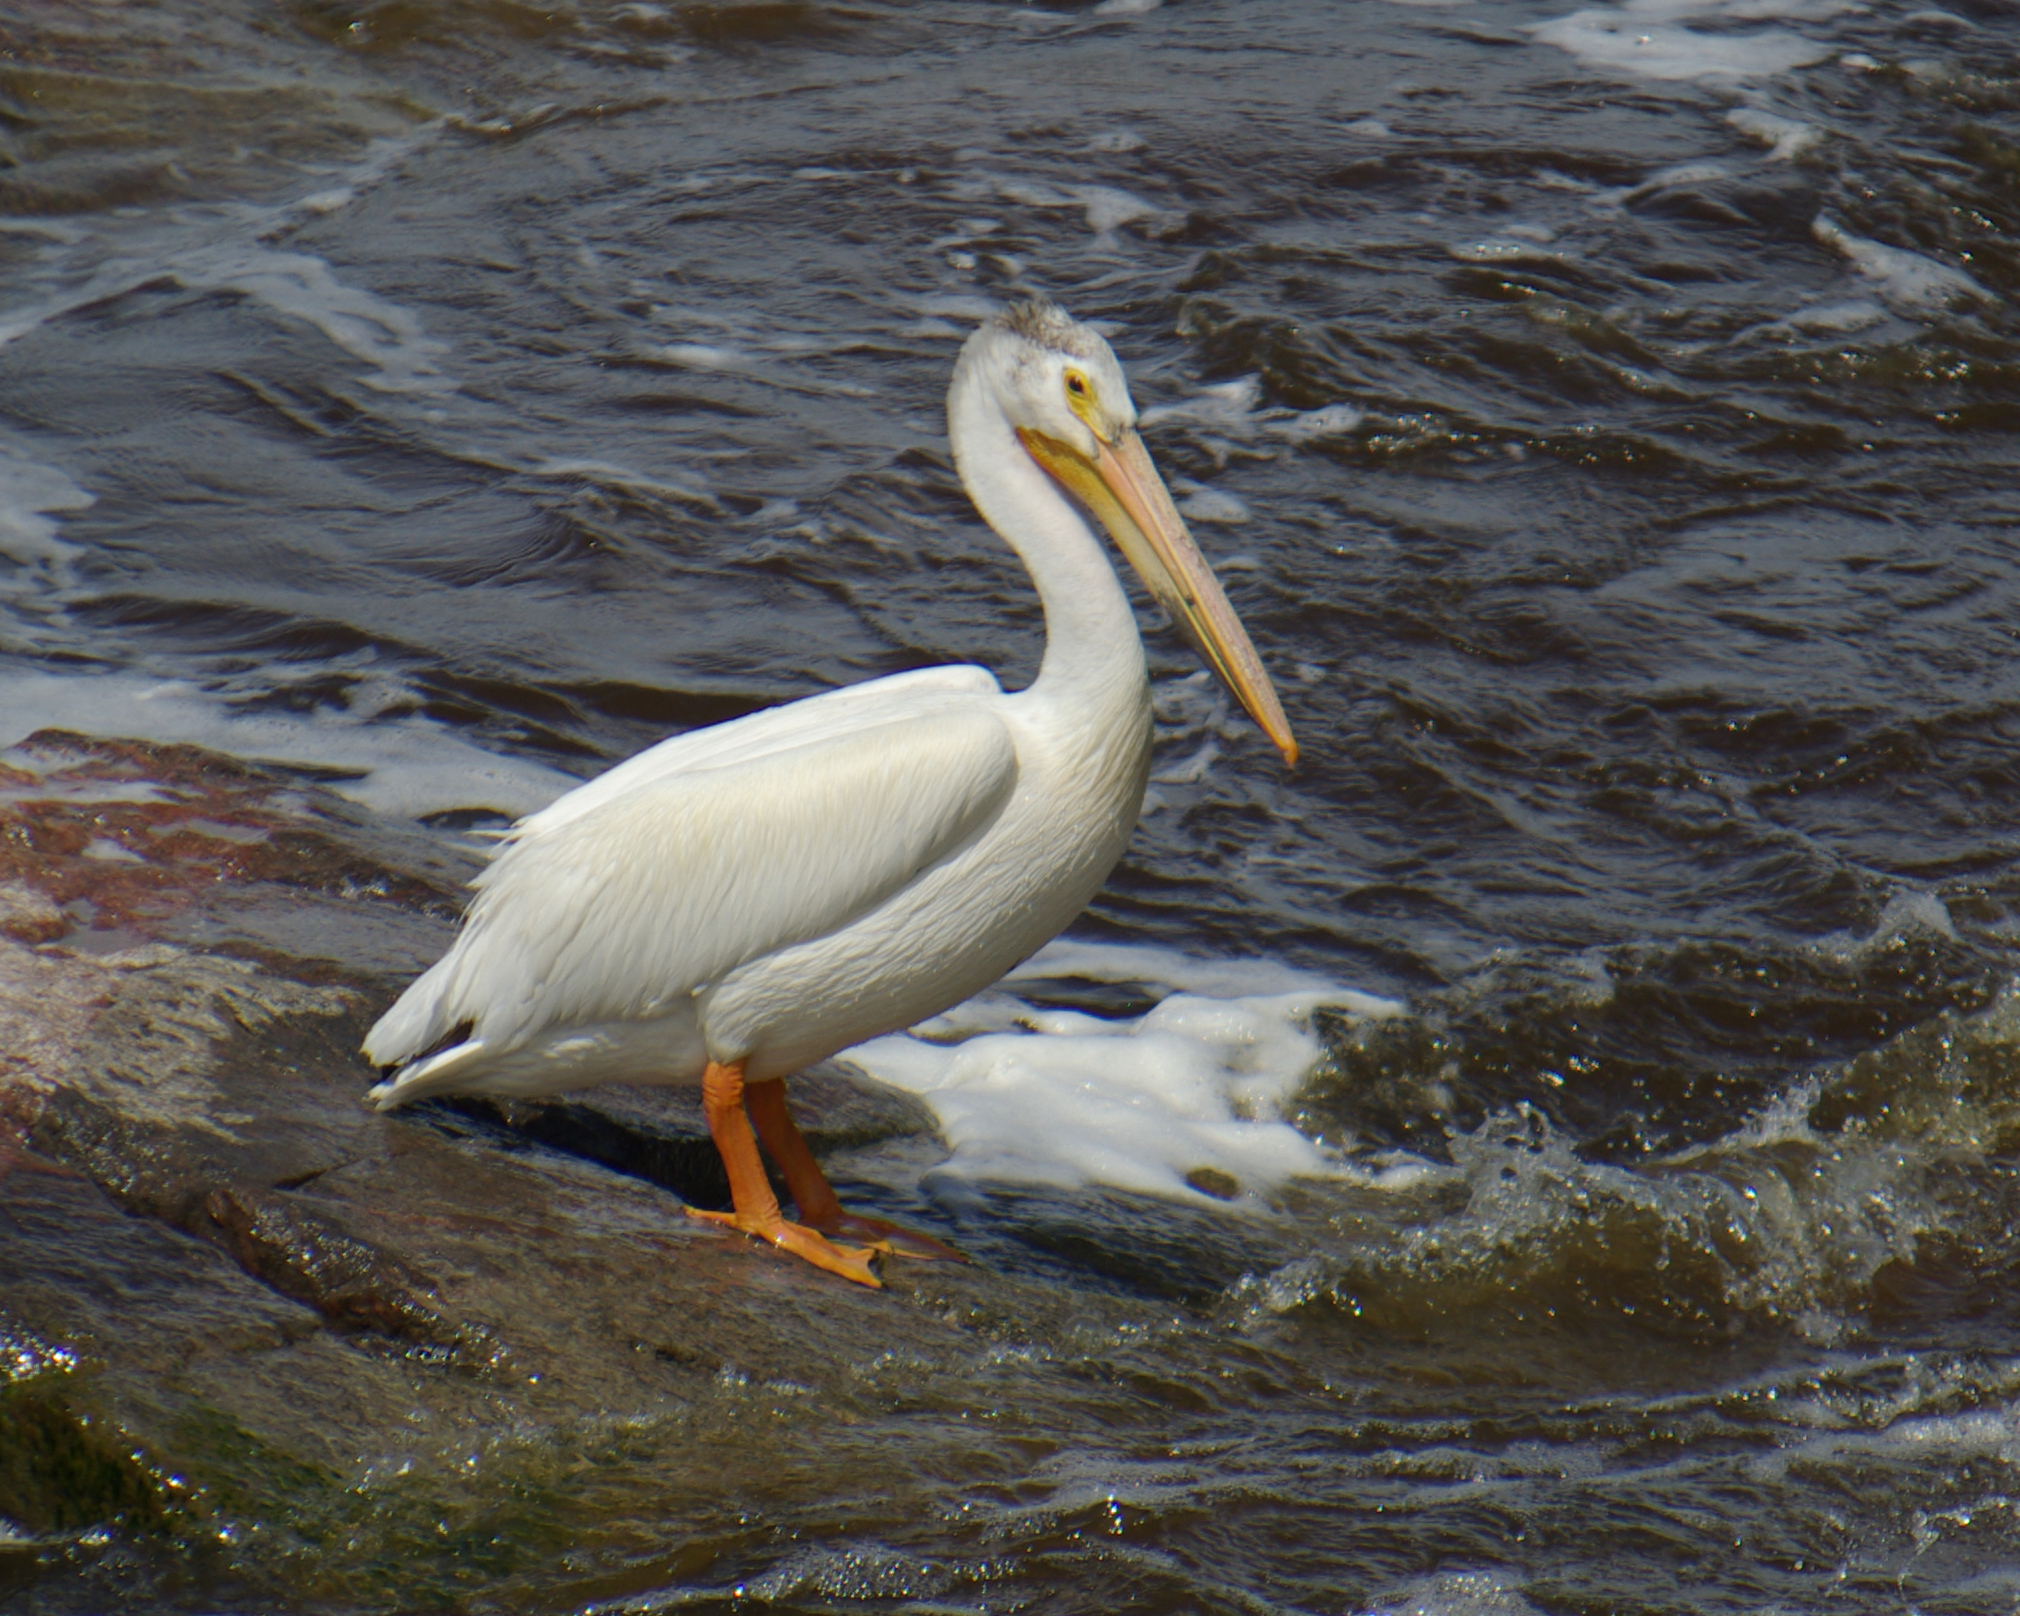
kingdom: Animalia
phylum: Chordata
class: Aves
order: Pelecaniformes
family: Pelecanidae
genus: Pelecanus
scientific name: Pelecanus erythrorhynchos
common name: American white pelican
